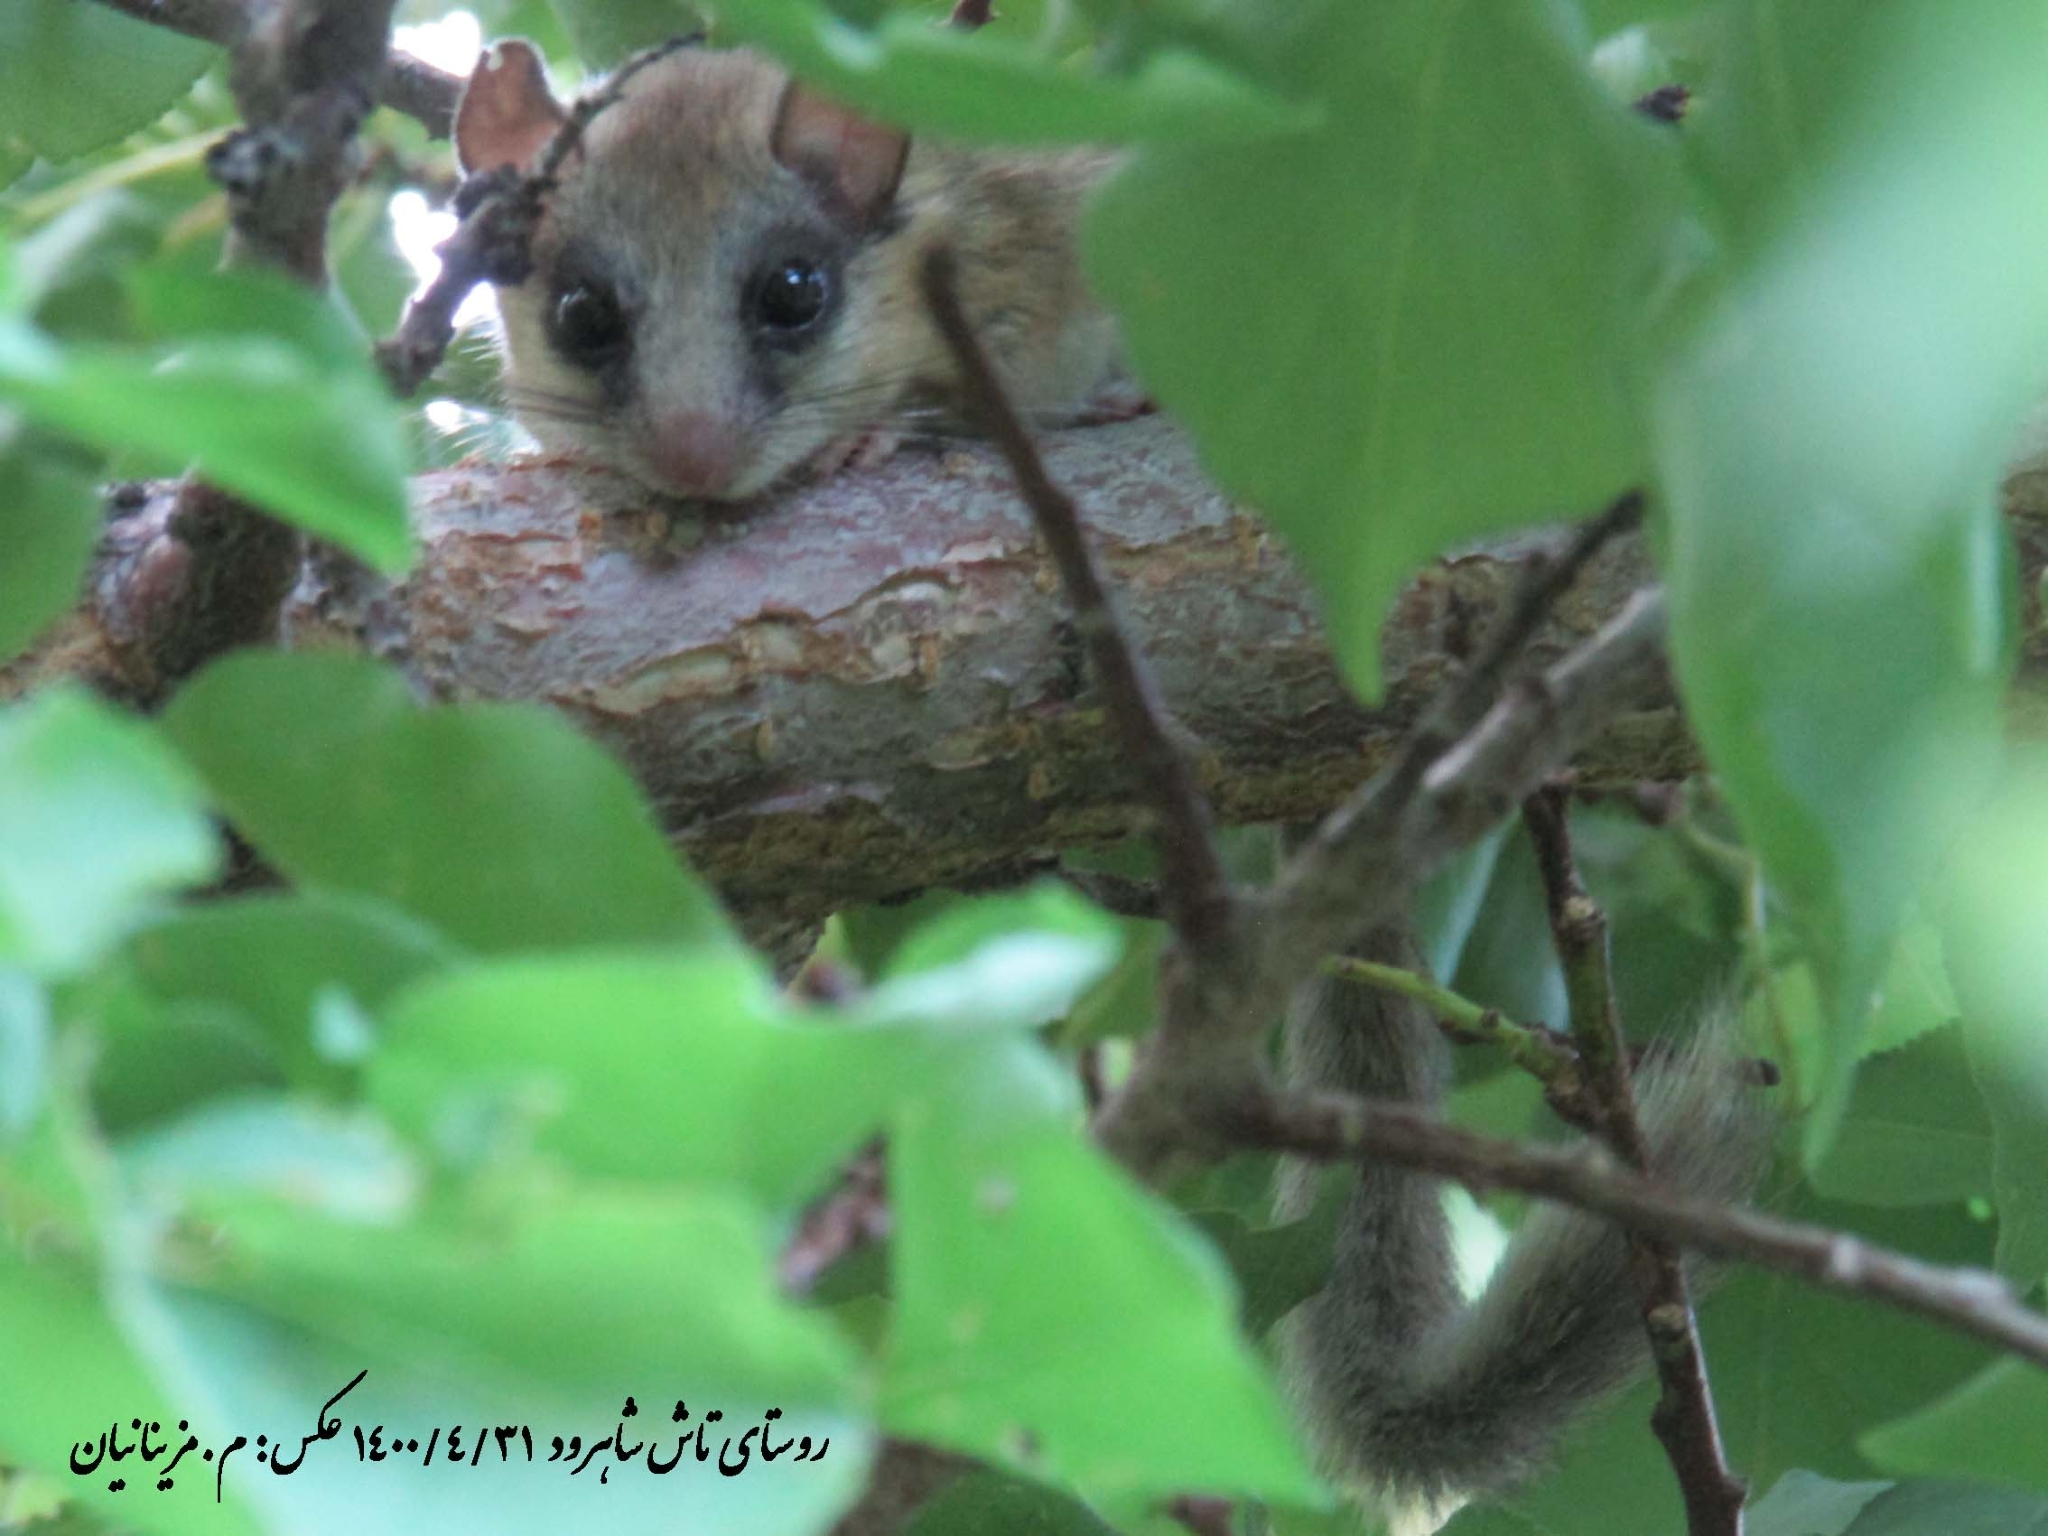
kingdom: Animalia
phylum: Chordata
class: Mammalia
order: Rodentia
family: Gliridae
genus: Dryomys
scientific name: Dryomys nitedula
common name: Forest dormouse
